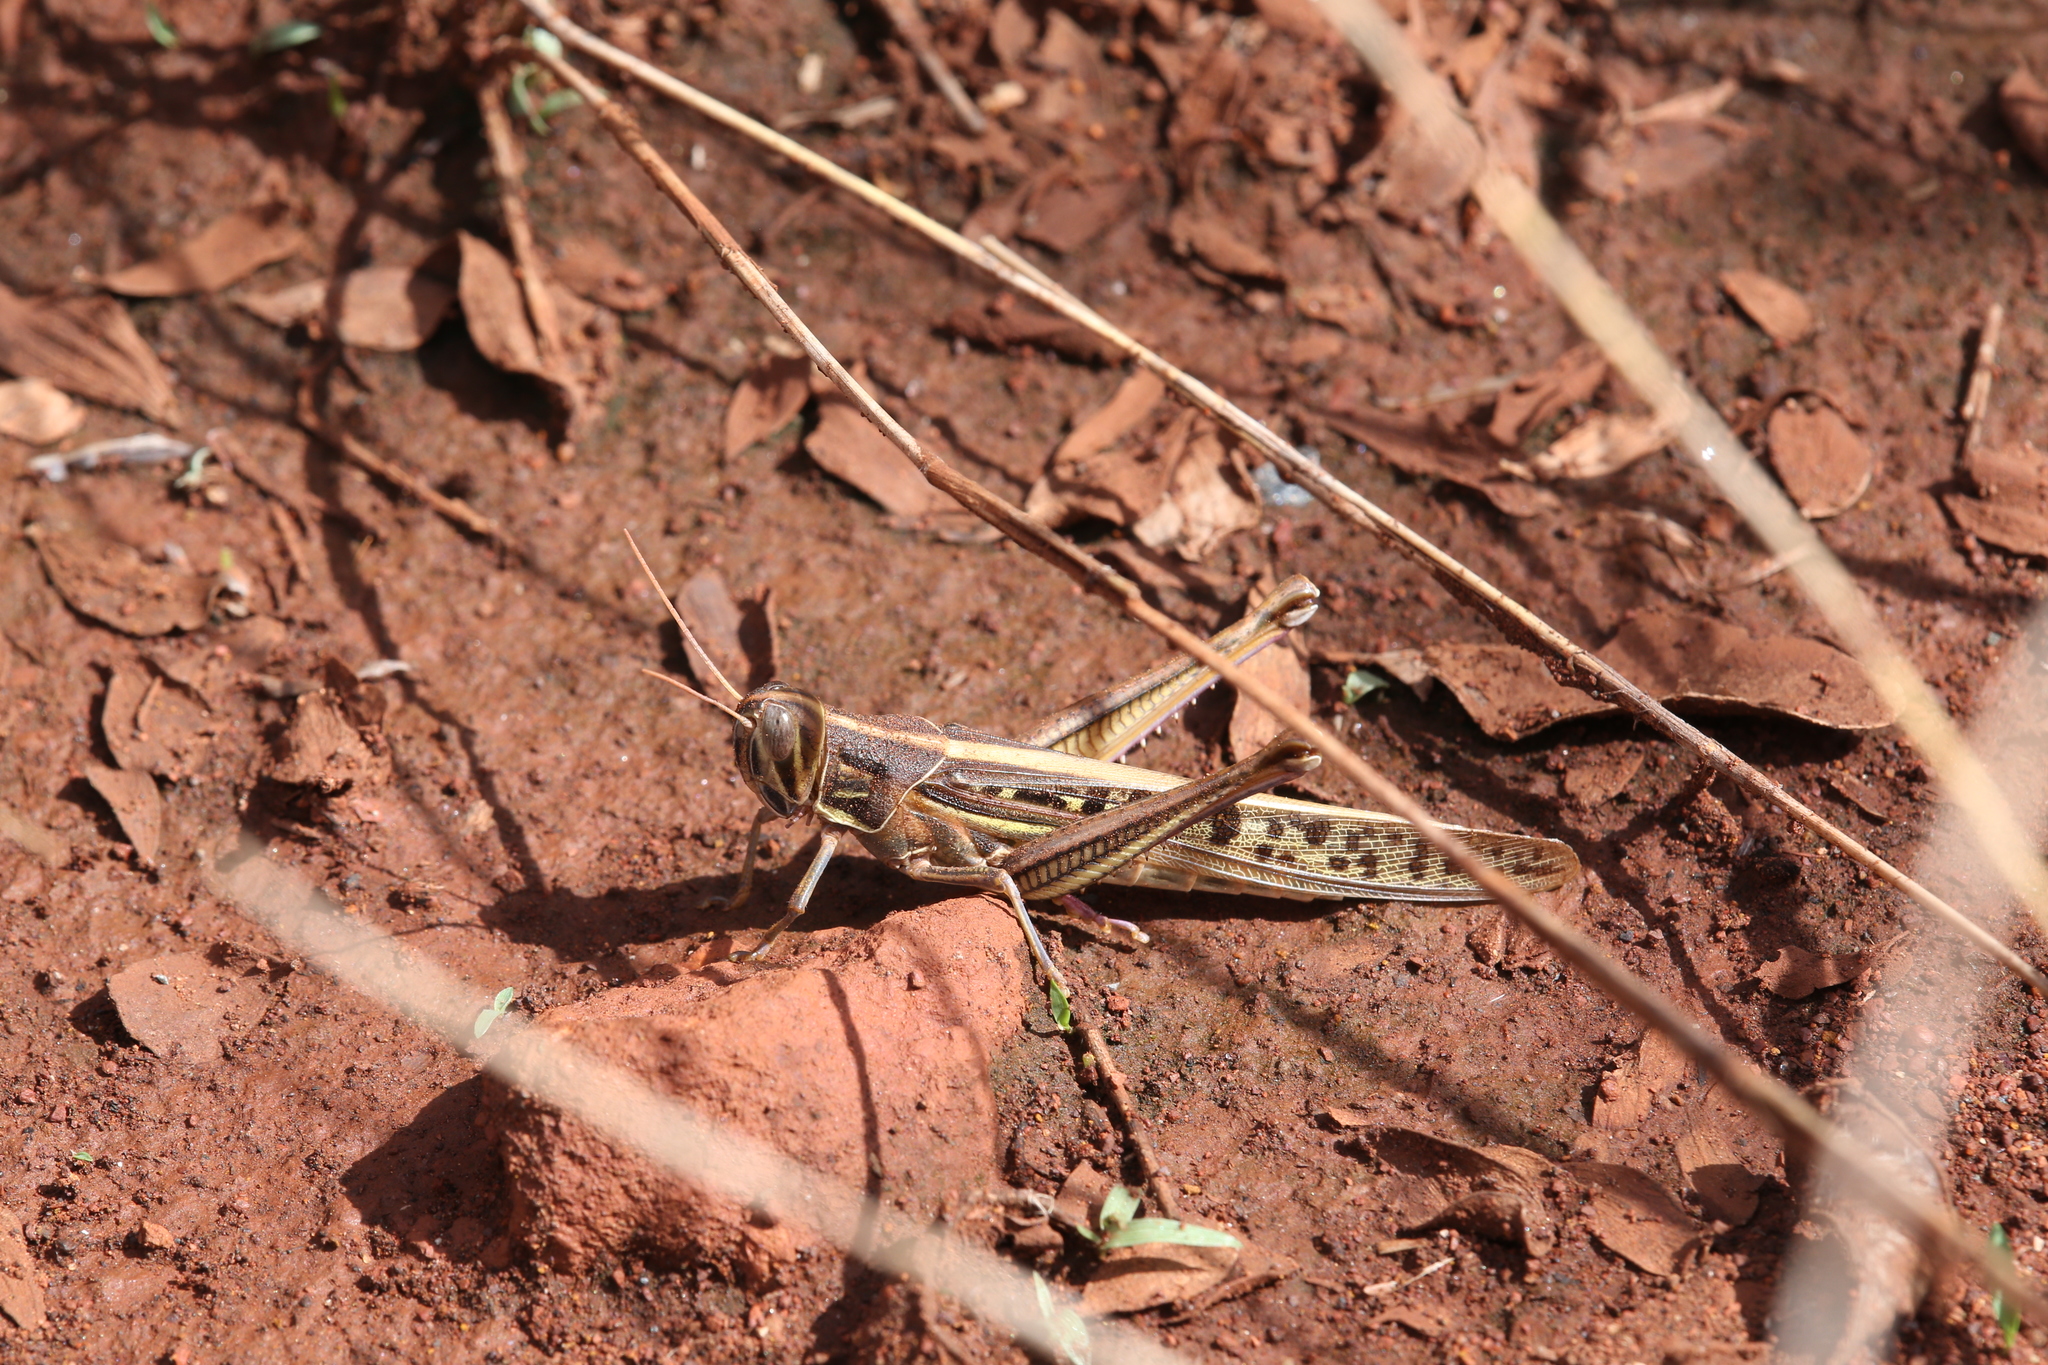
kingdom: Animalia
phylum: Arthropoda
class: Insecta
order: Orthoptera
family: Acrididae
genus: Austracris
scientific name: Austracris guttulosa
